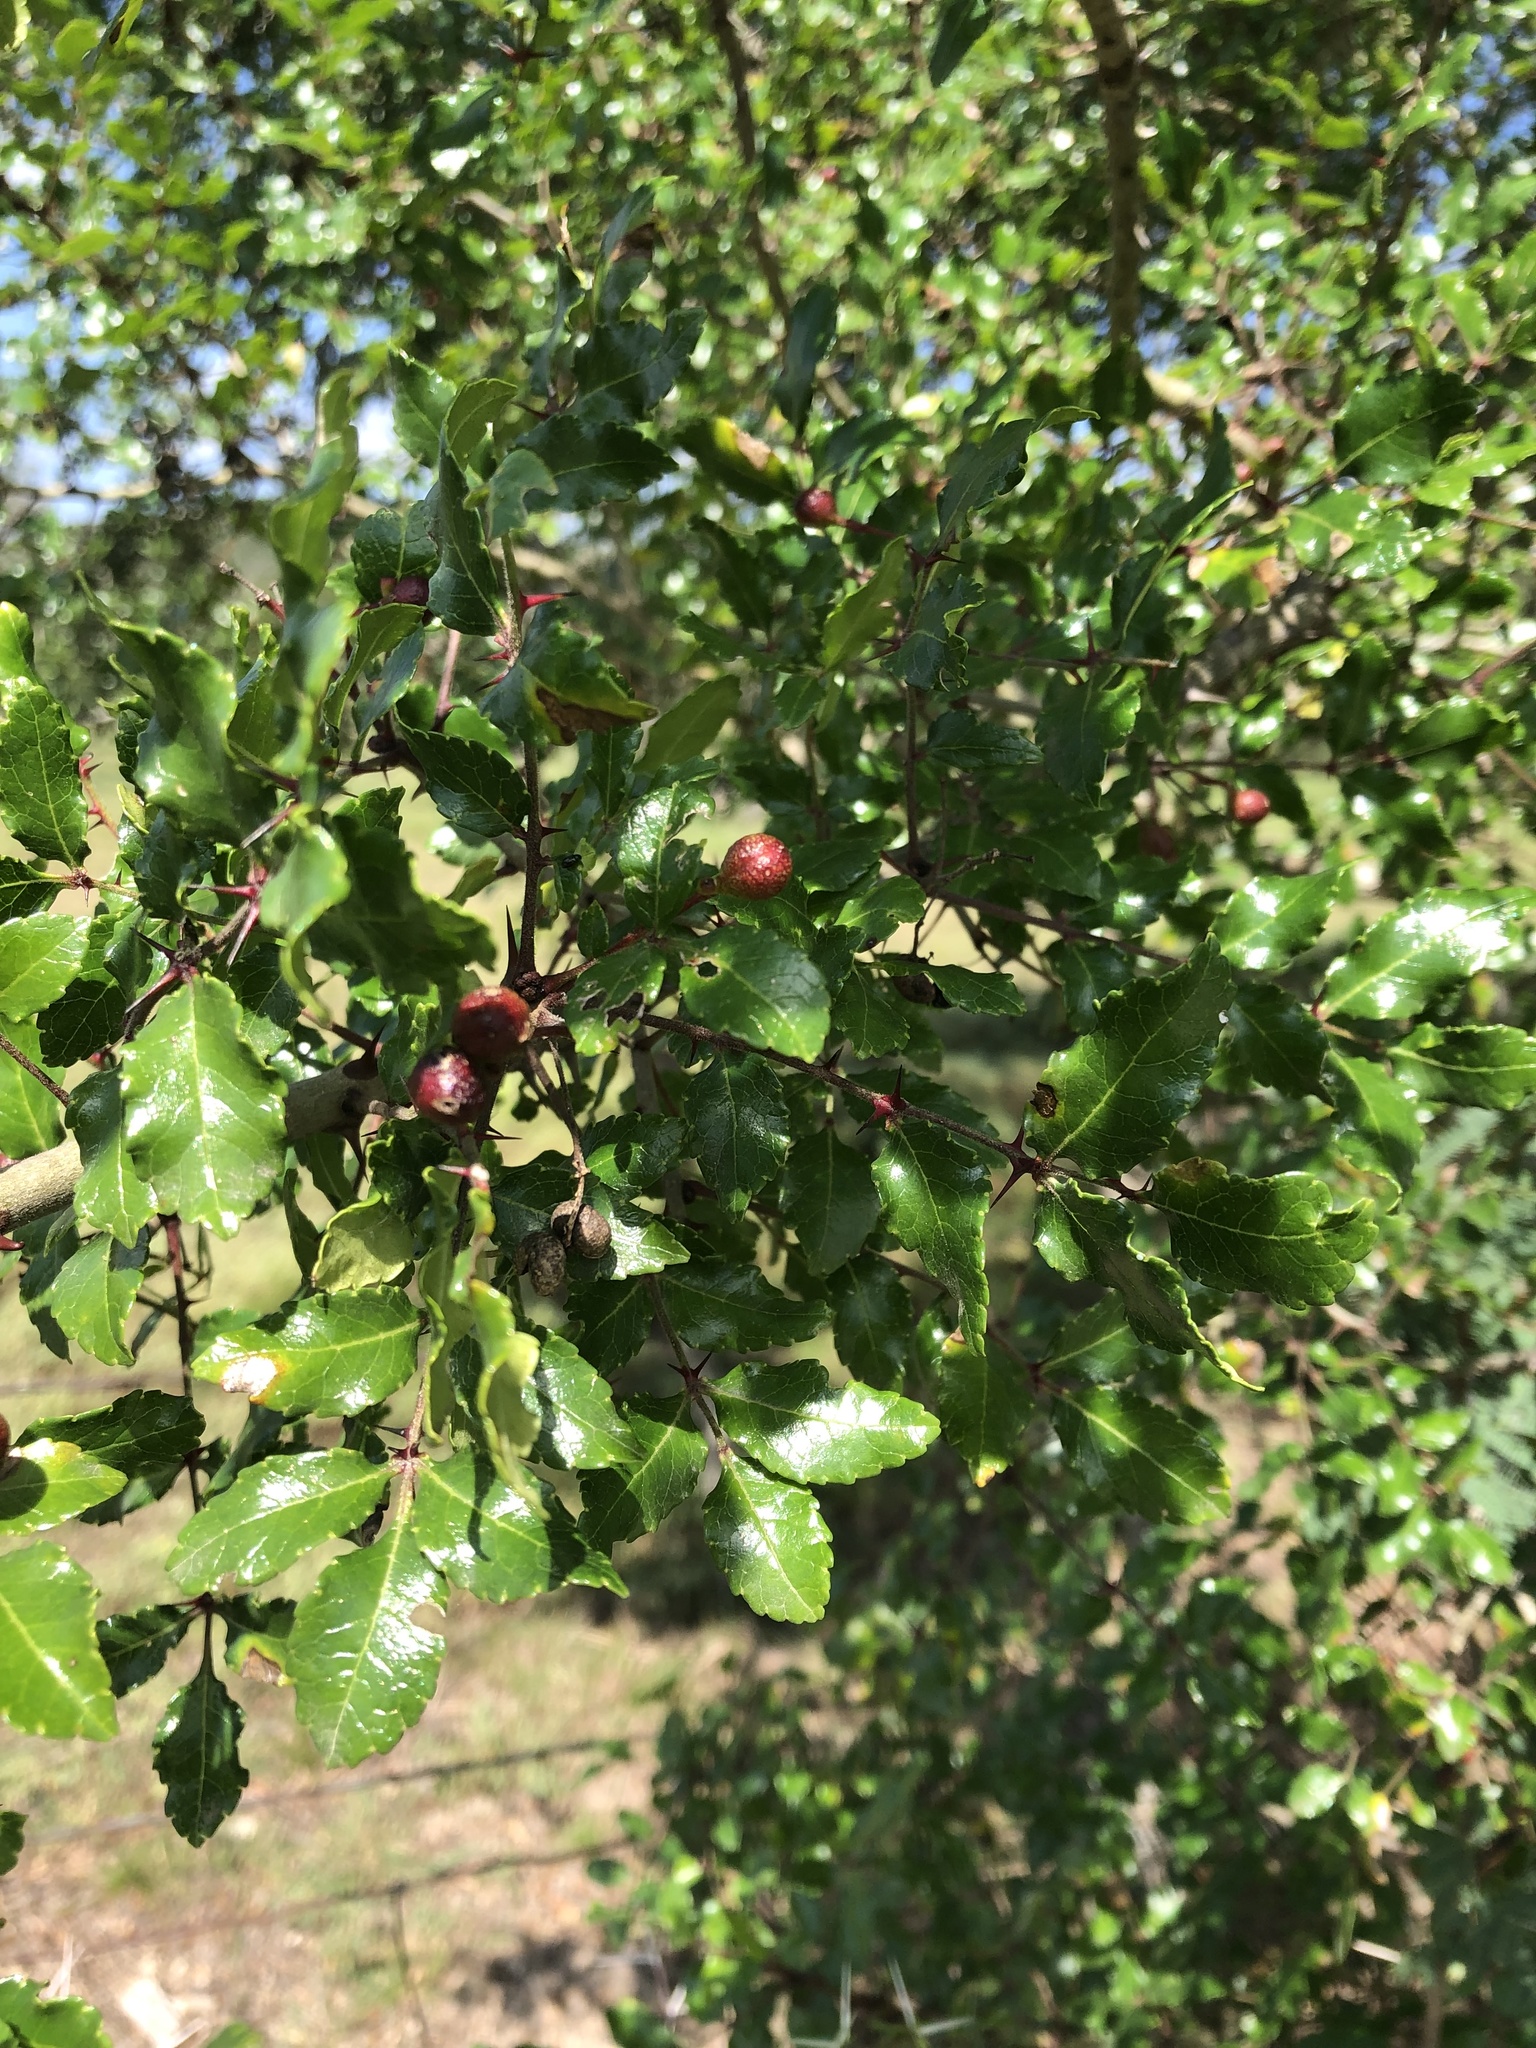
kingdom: Plantae
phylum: Tracheophyta
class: Magnoliopsida
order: Sapindales
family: Rutaceae
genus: Zanthoxylum
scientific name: Zanthoxylum clava-herculis
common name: Hercules'-club
